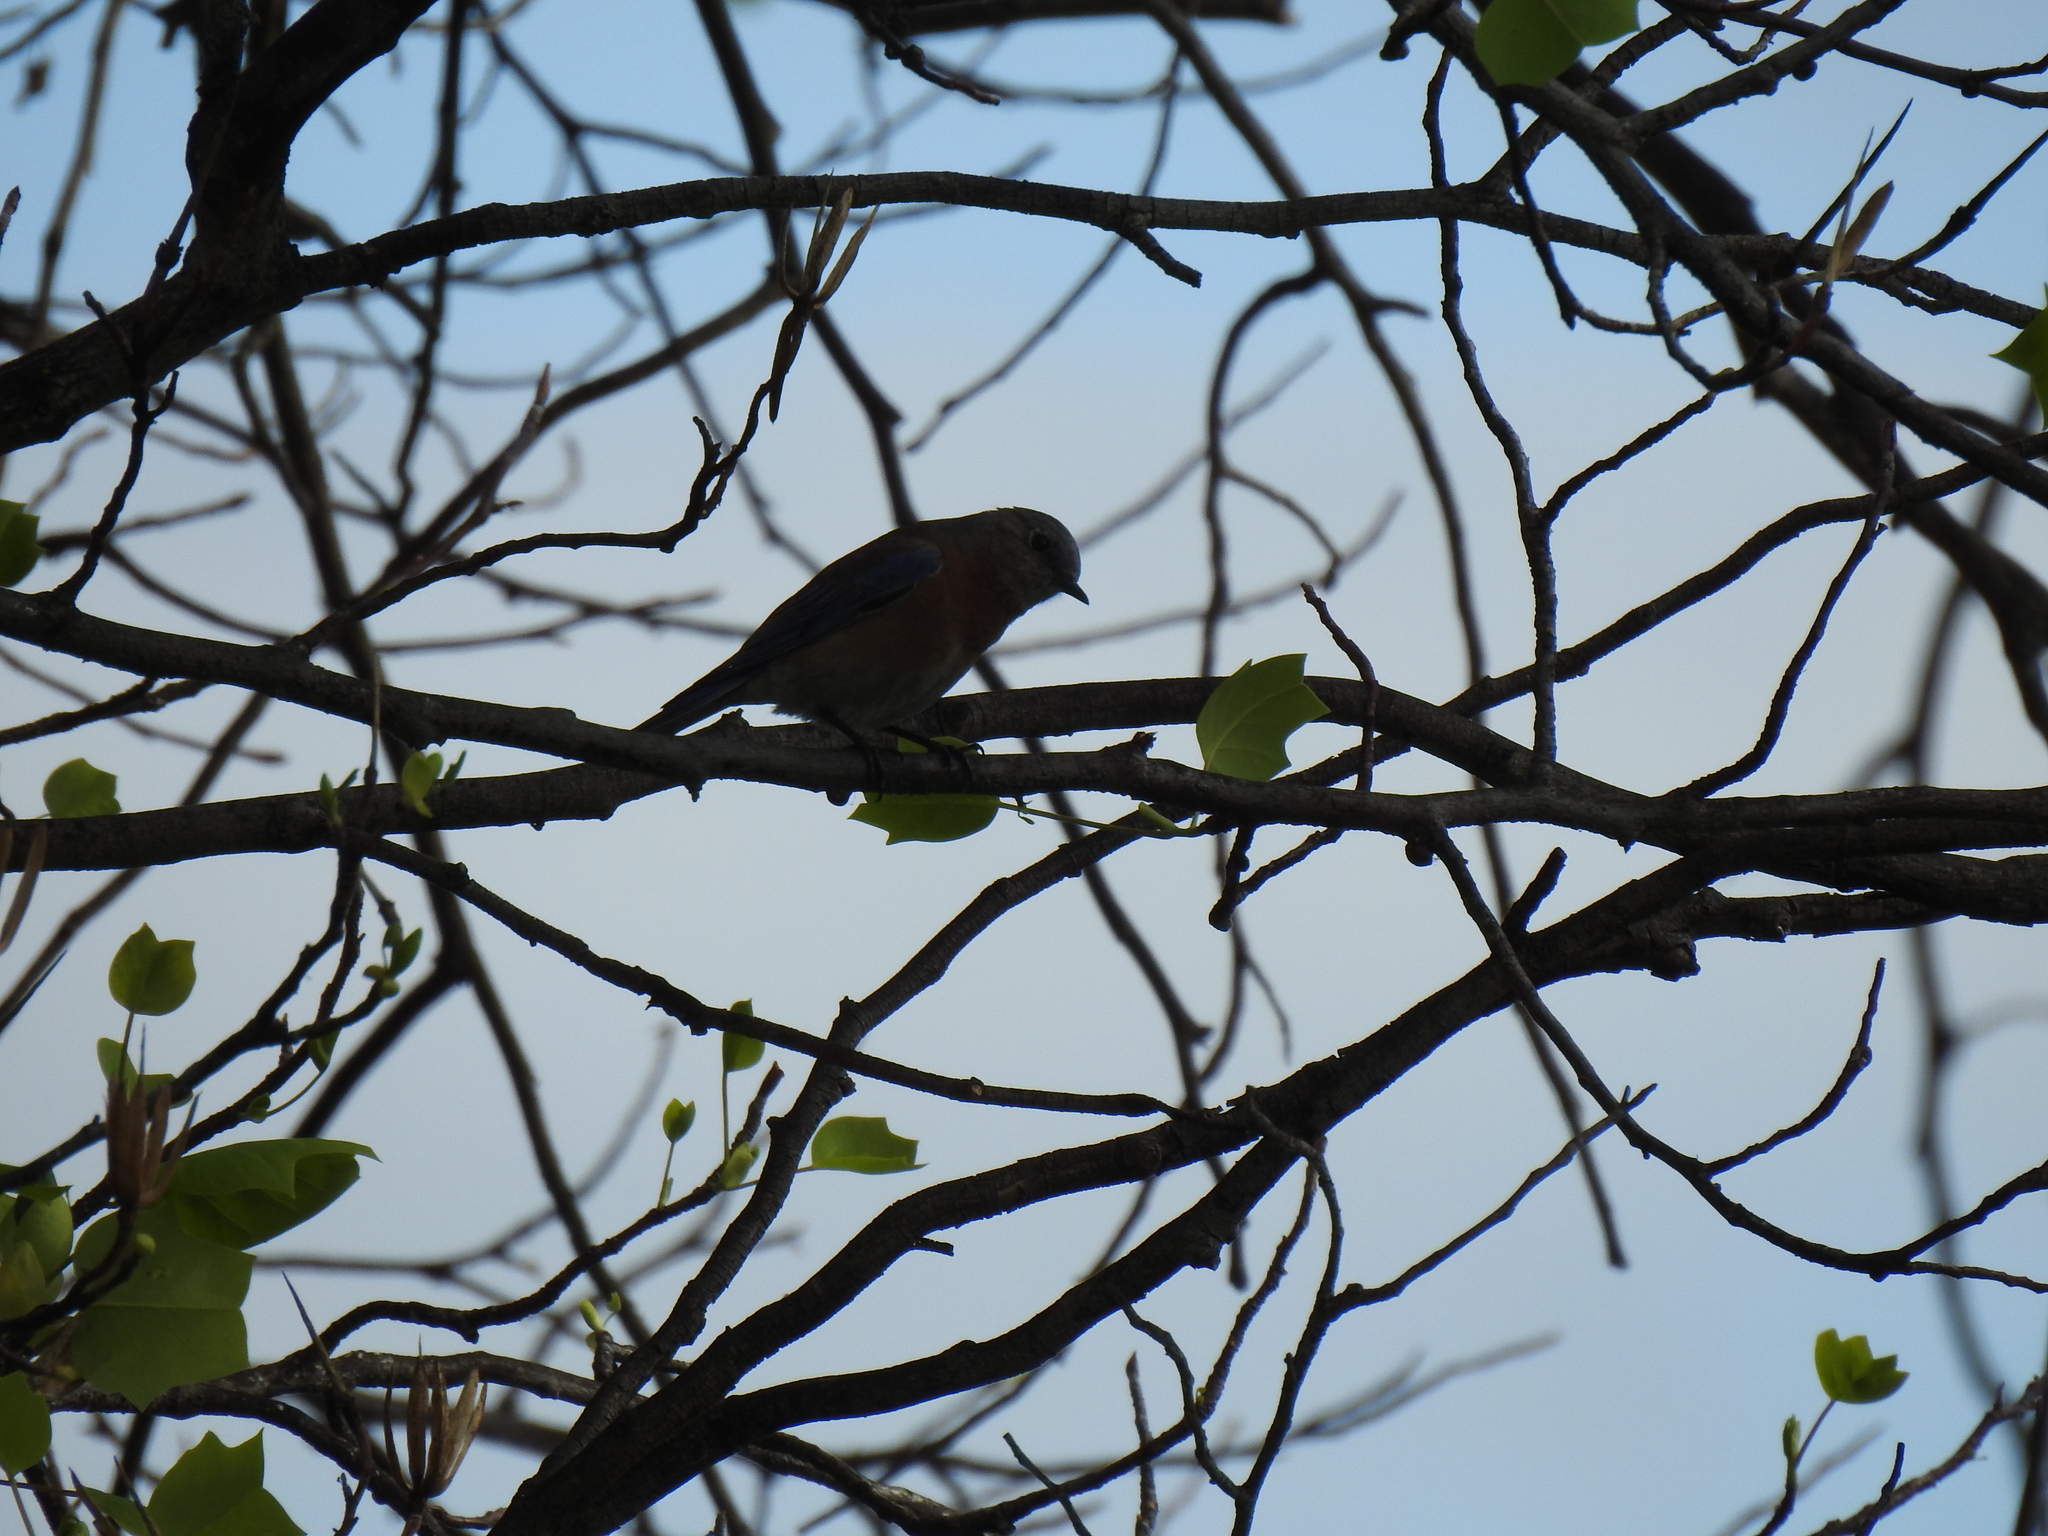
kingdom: Animalia
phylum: Chordata
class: Aves
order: Passeriformes
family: Turdidae
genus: Sialia
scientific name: Sialia mexicana
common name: Western bluebird
